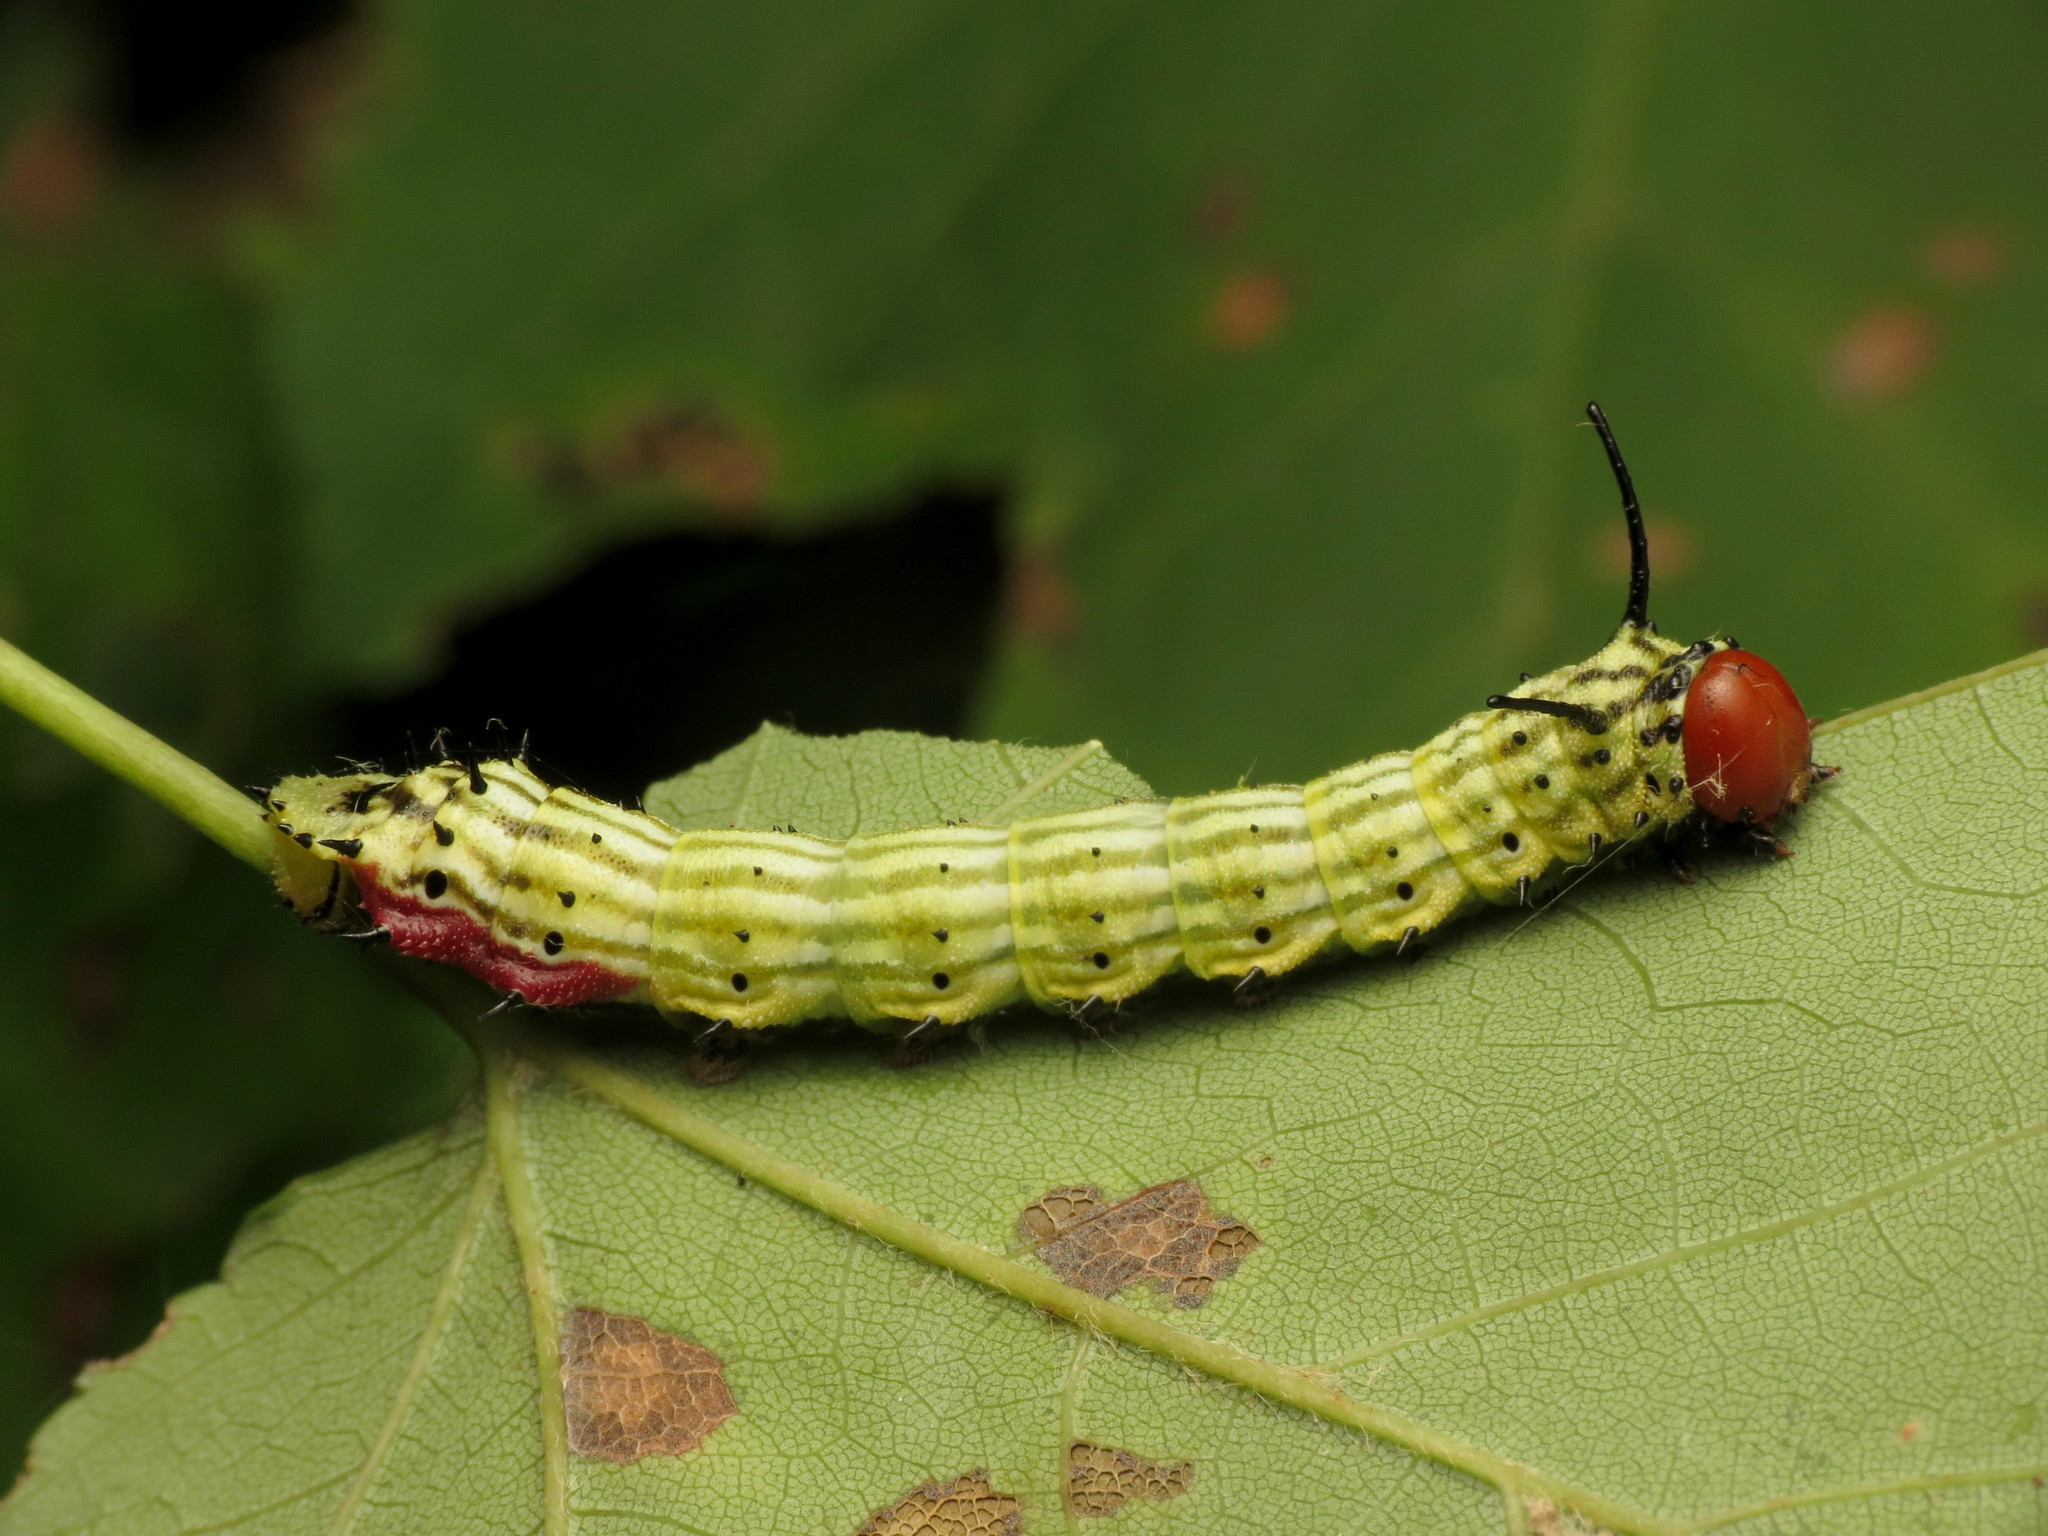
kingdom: Animalia
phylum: Arthropoda
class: Insecta
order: Lepidoptera
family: Saturniidae
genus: Dryocampa
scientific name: Dryocampa rubicunda
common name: Rosy maple moth
